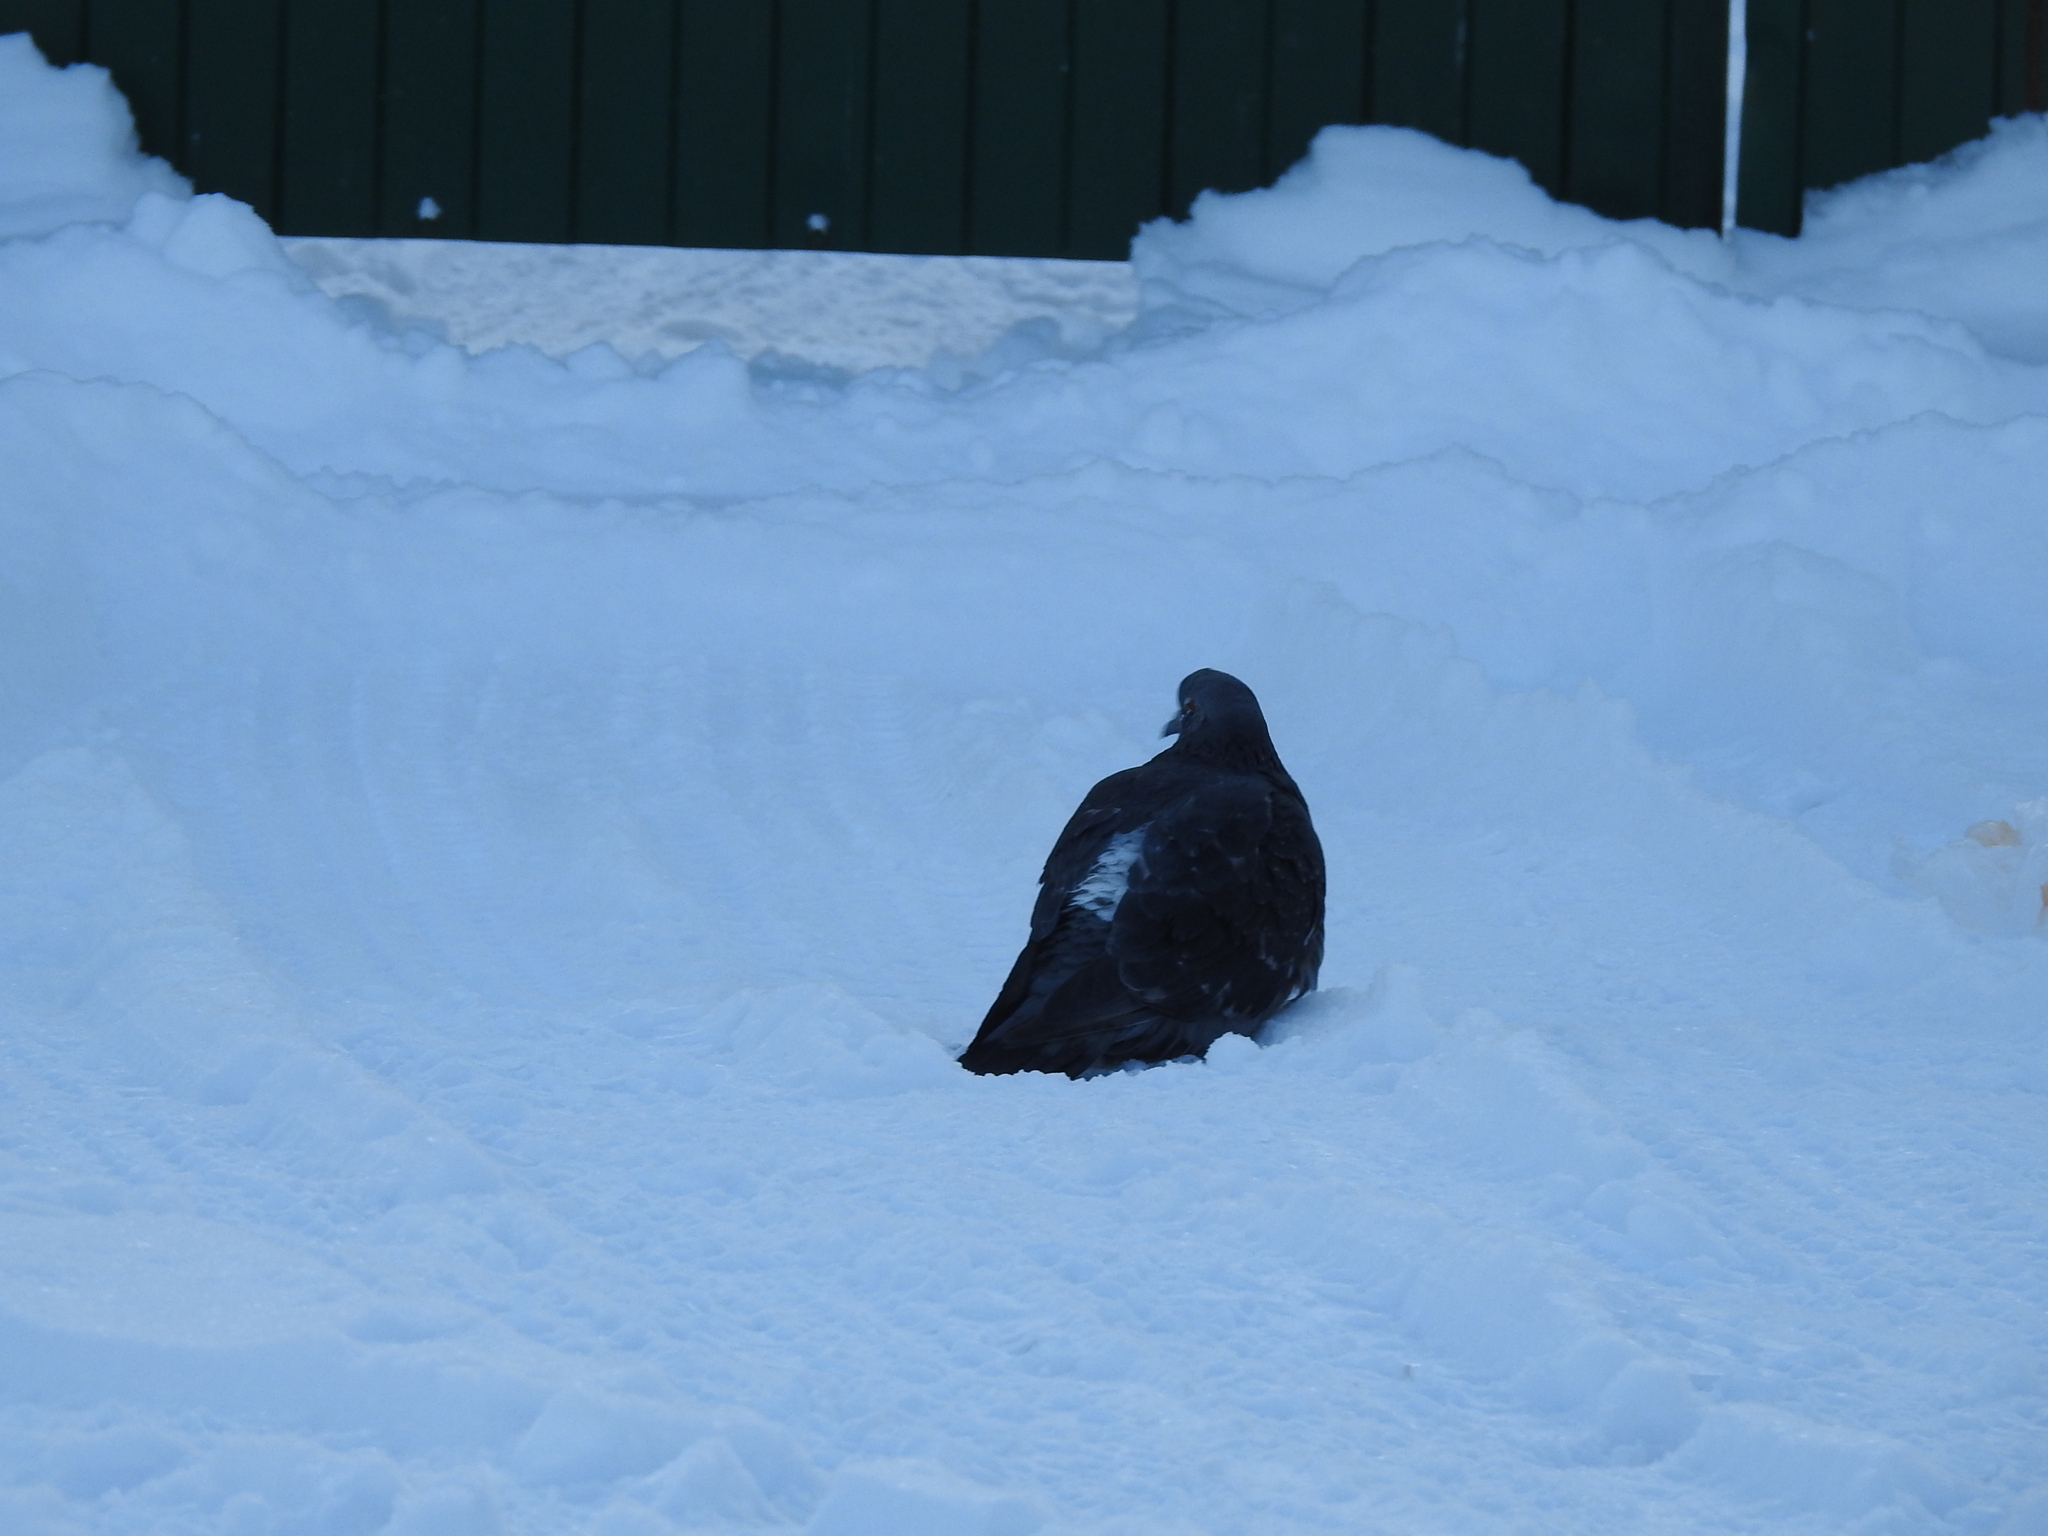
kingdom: Animalia
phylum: Chordata
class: Aves
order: Columbiformes
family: Columbidae
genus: Columba
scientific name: Columba livia
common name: Rock pigeon
